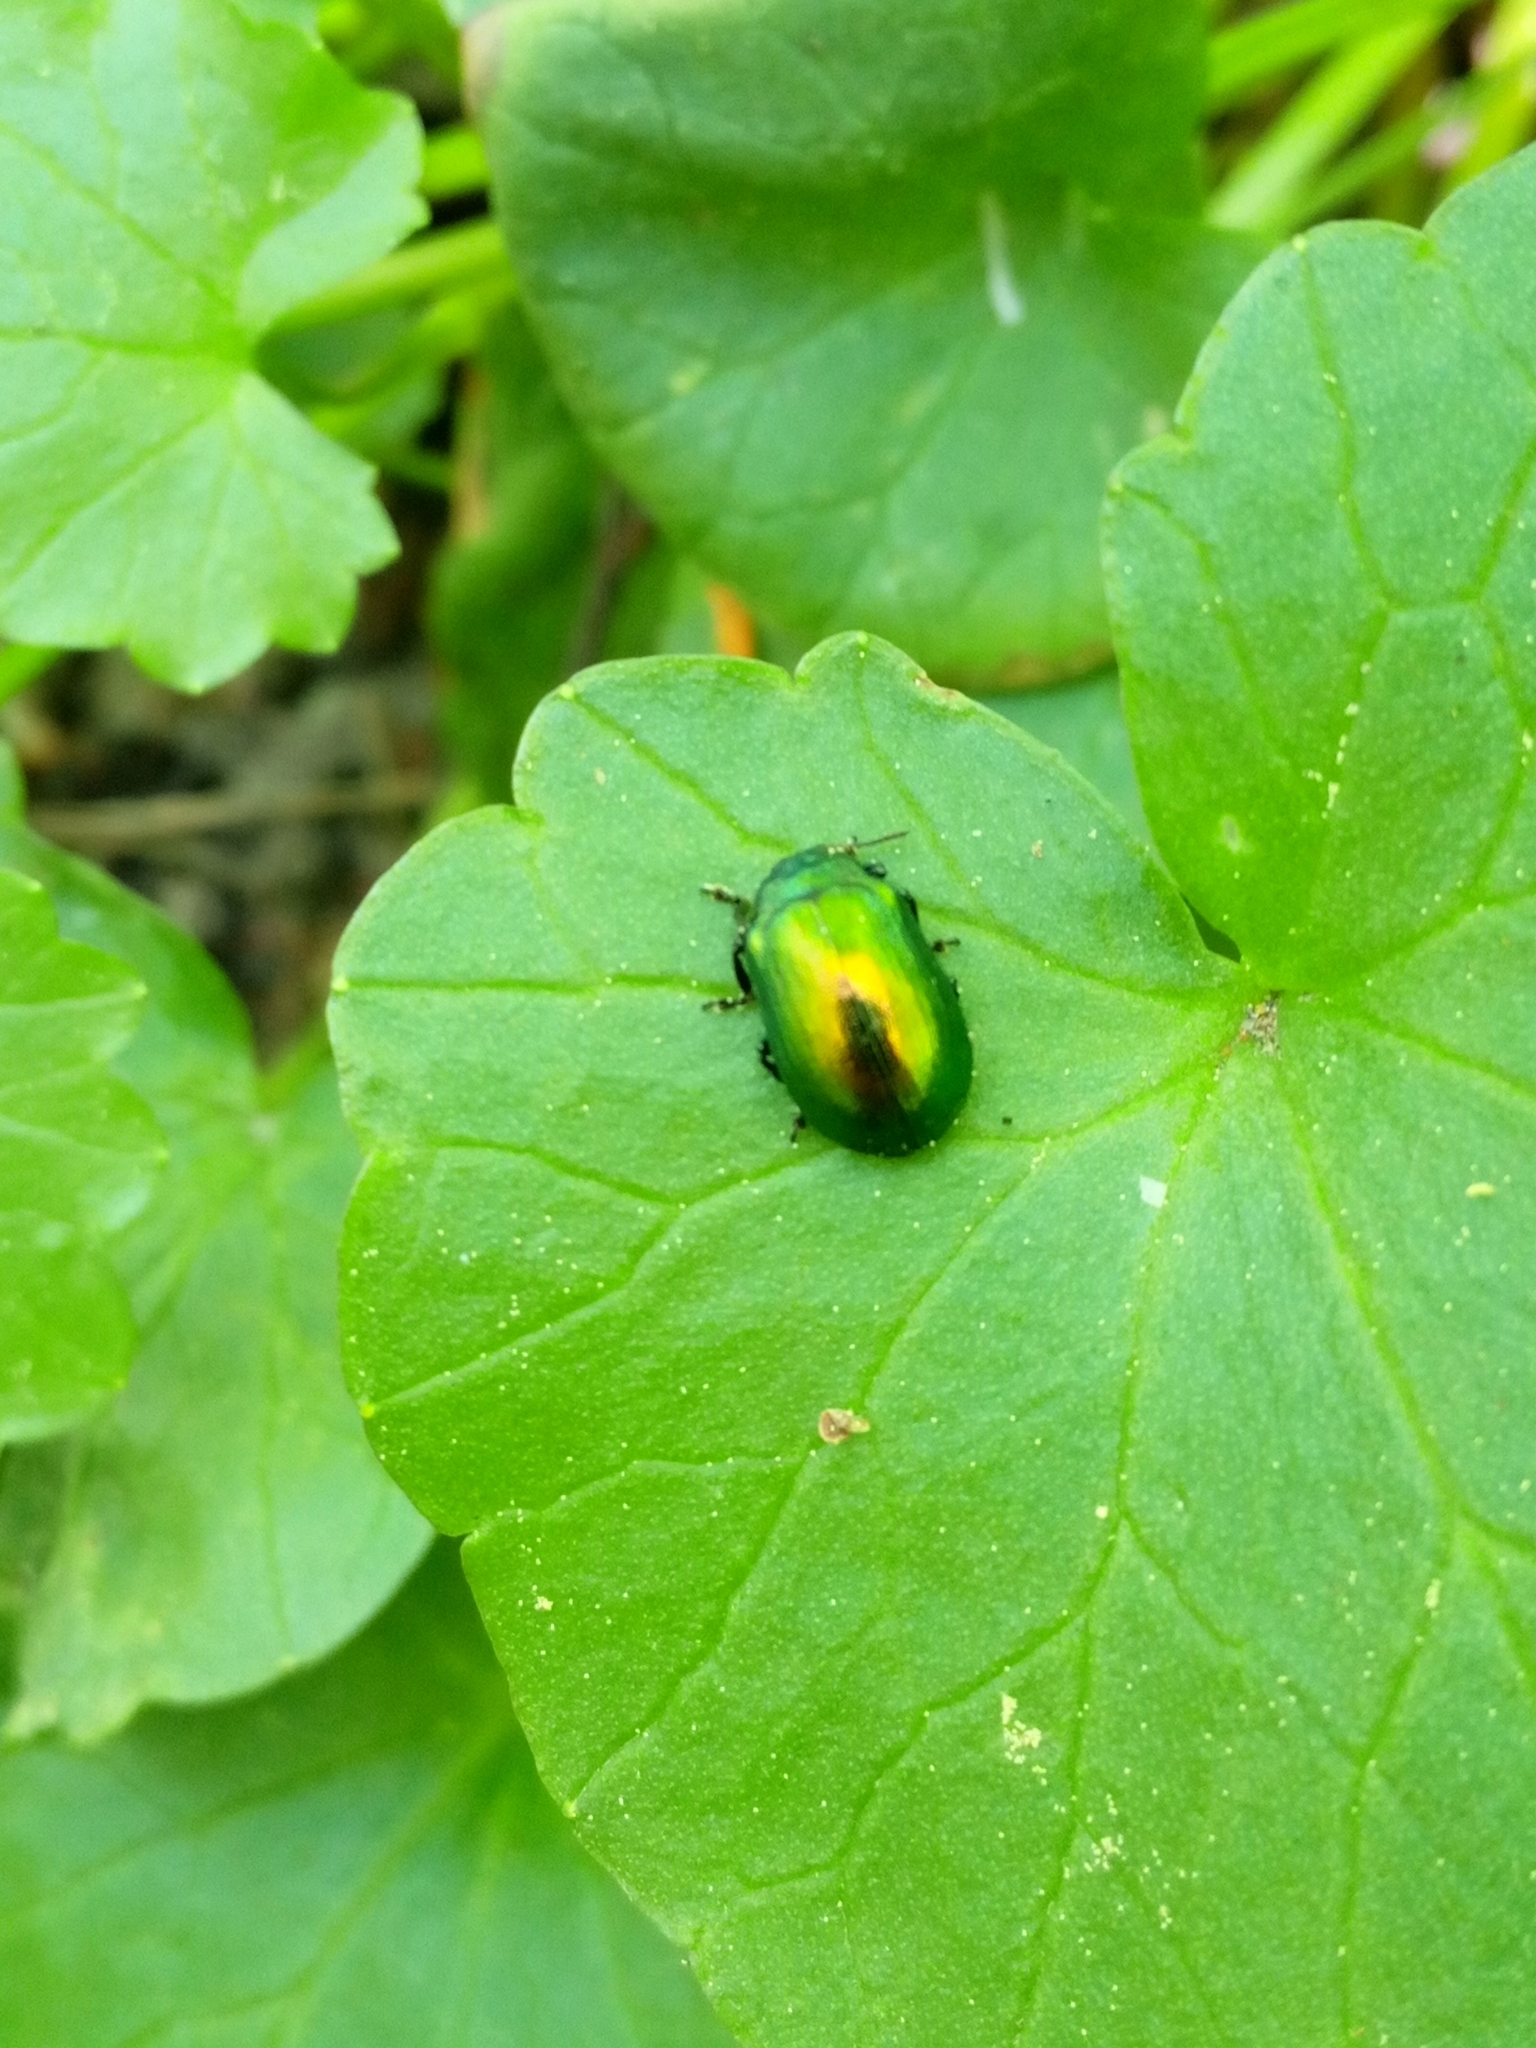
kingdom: Animalia
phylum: Arthropoda
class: Insecta
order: Coleoptera
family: Chrysomelidae
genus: Plagiosterna
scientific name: Plagiosterna aenea
